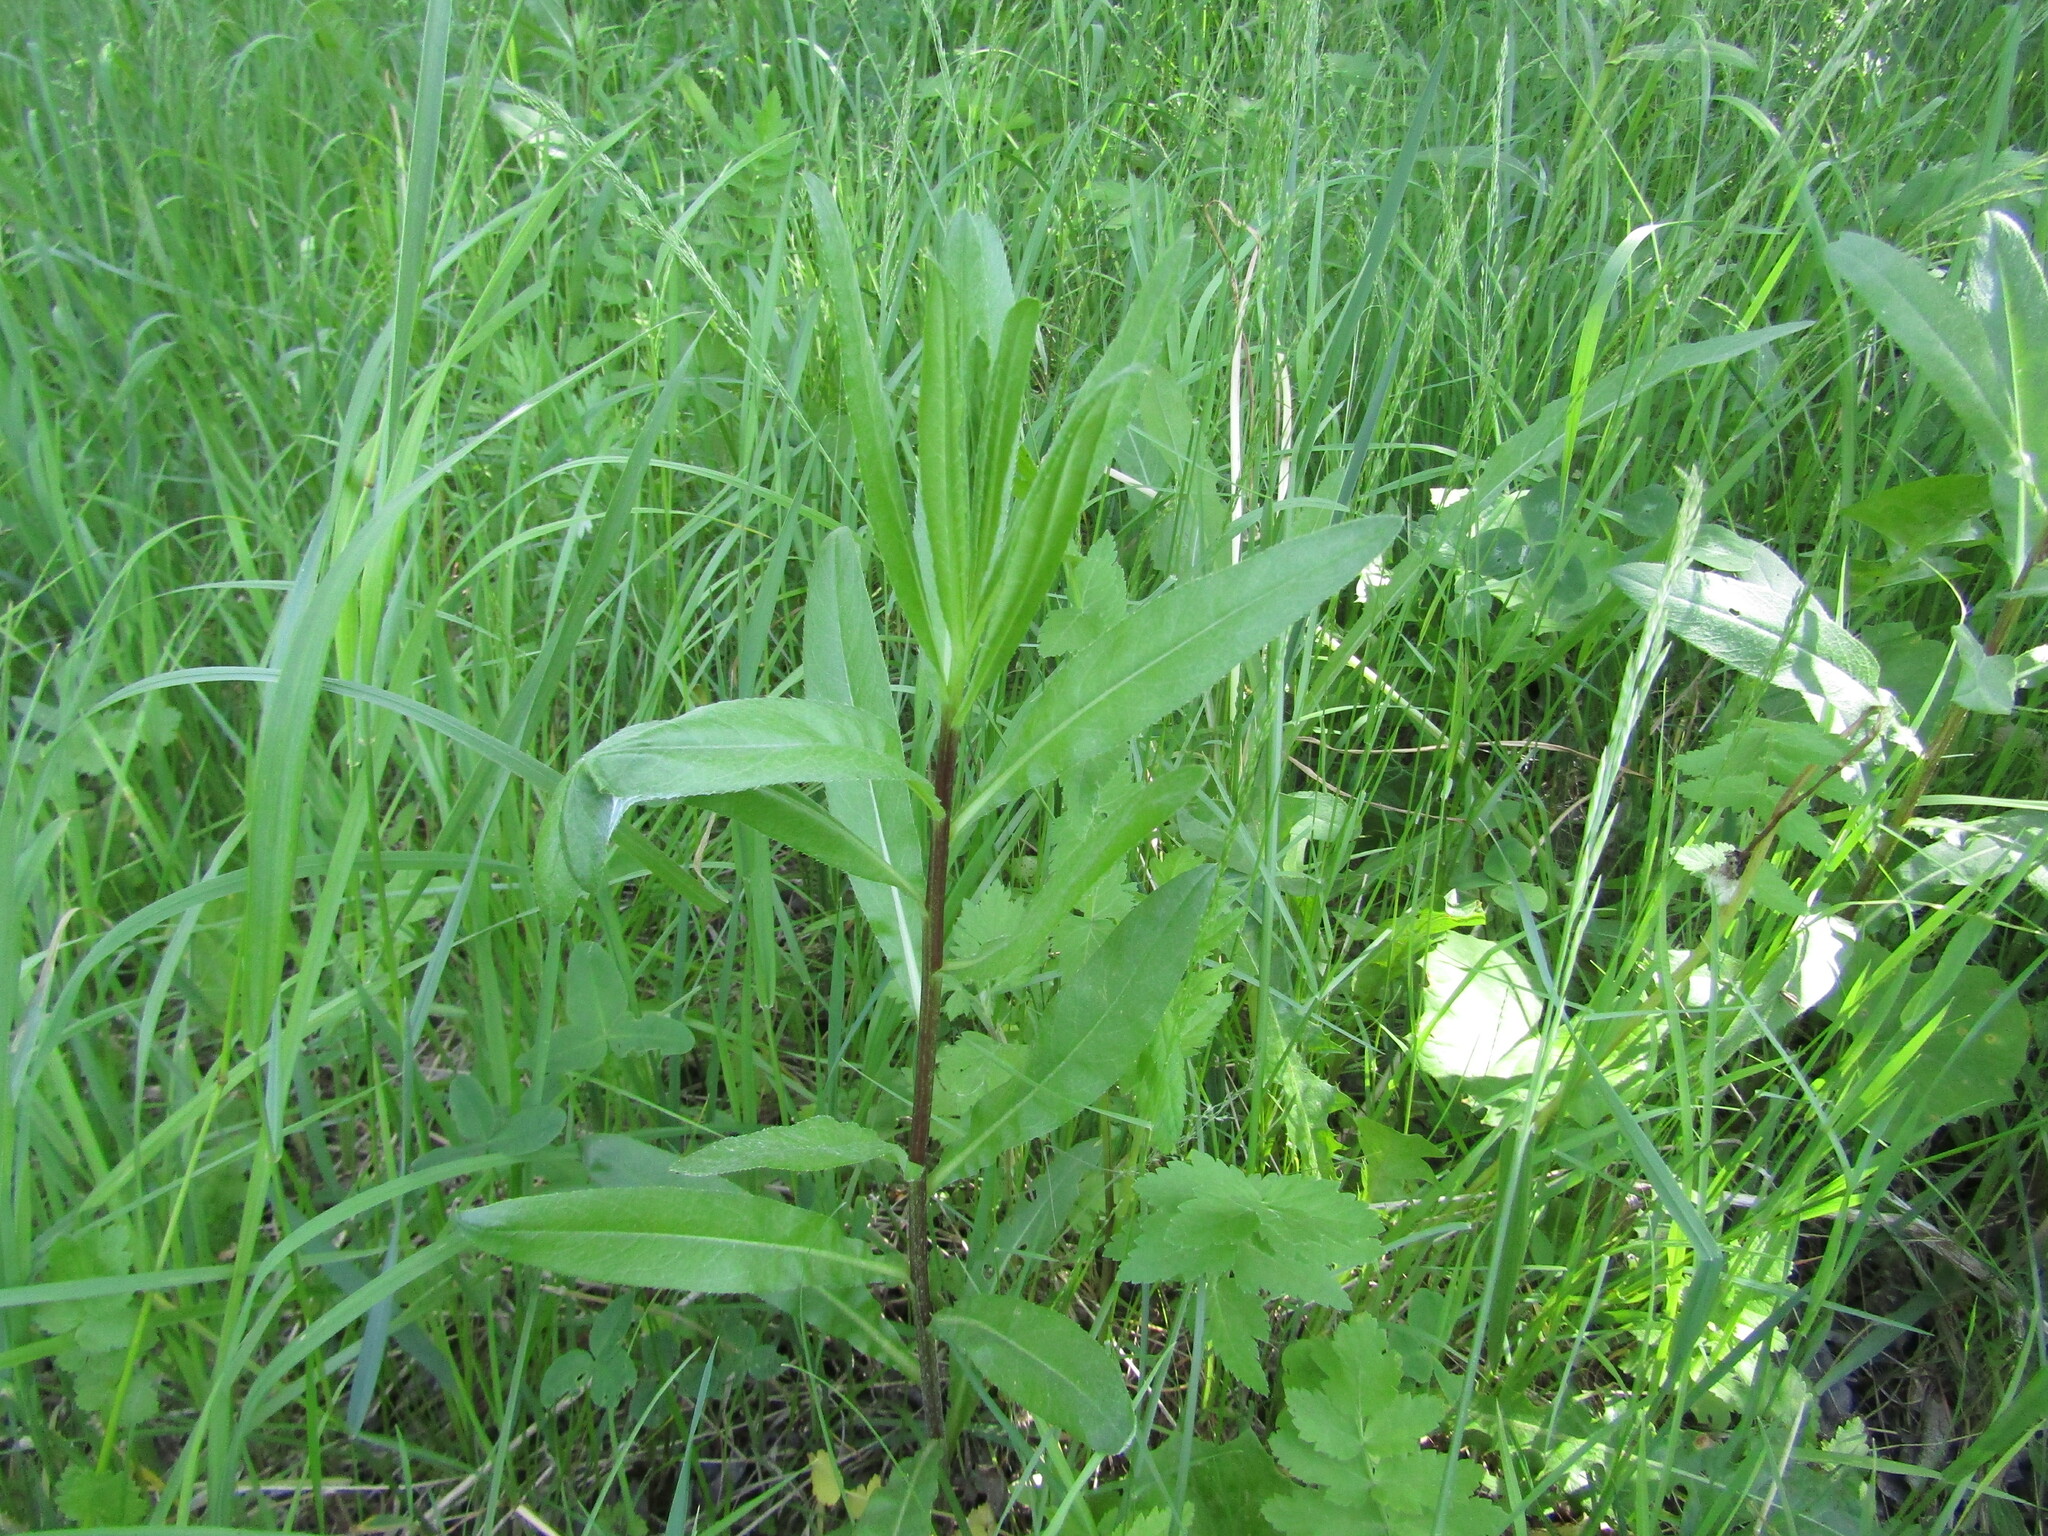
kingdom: Plantae
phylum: Tracheophyta
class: Magnoliopsida
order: Asterales
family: Asteraceae
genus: Cirsium
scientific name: Cirsium arvense
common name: Creeping thistle
